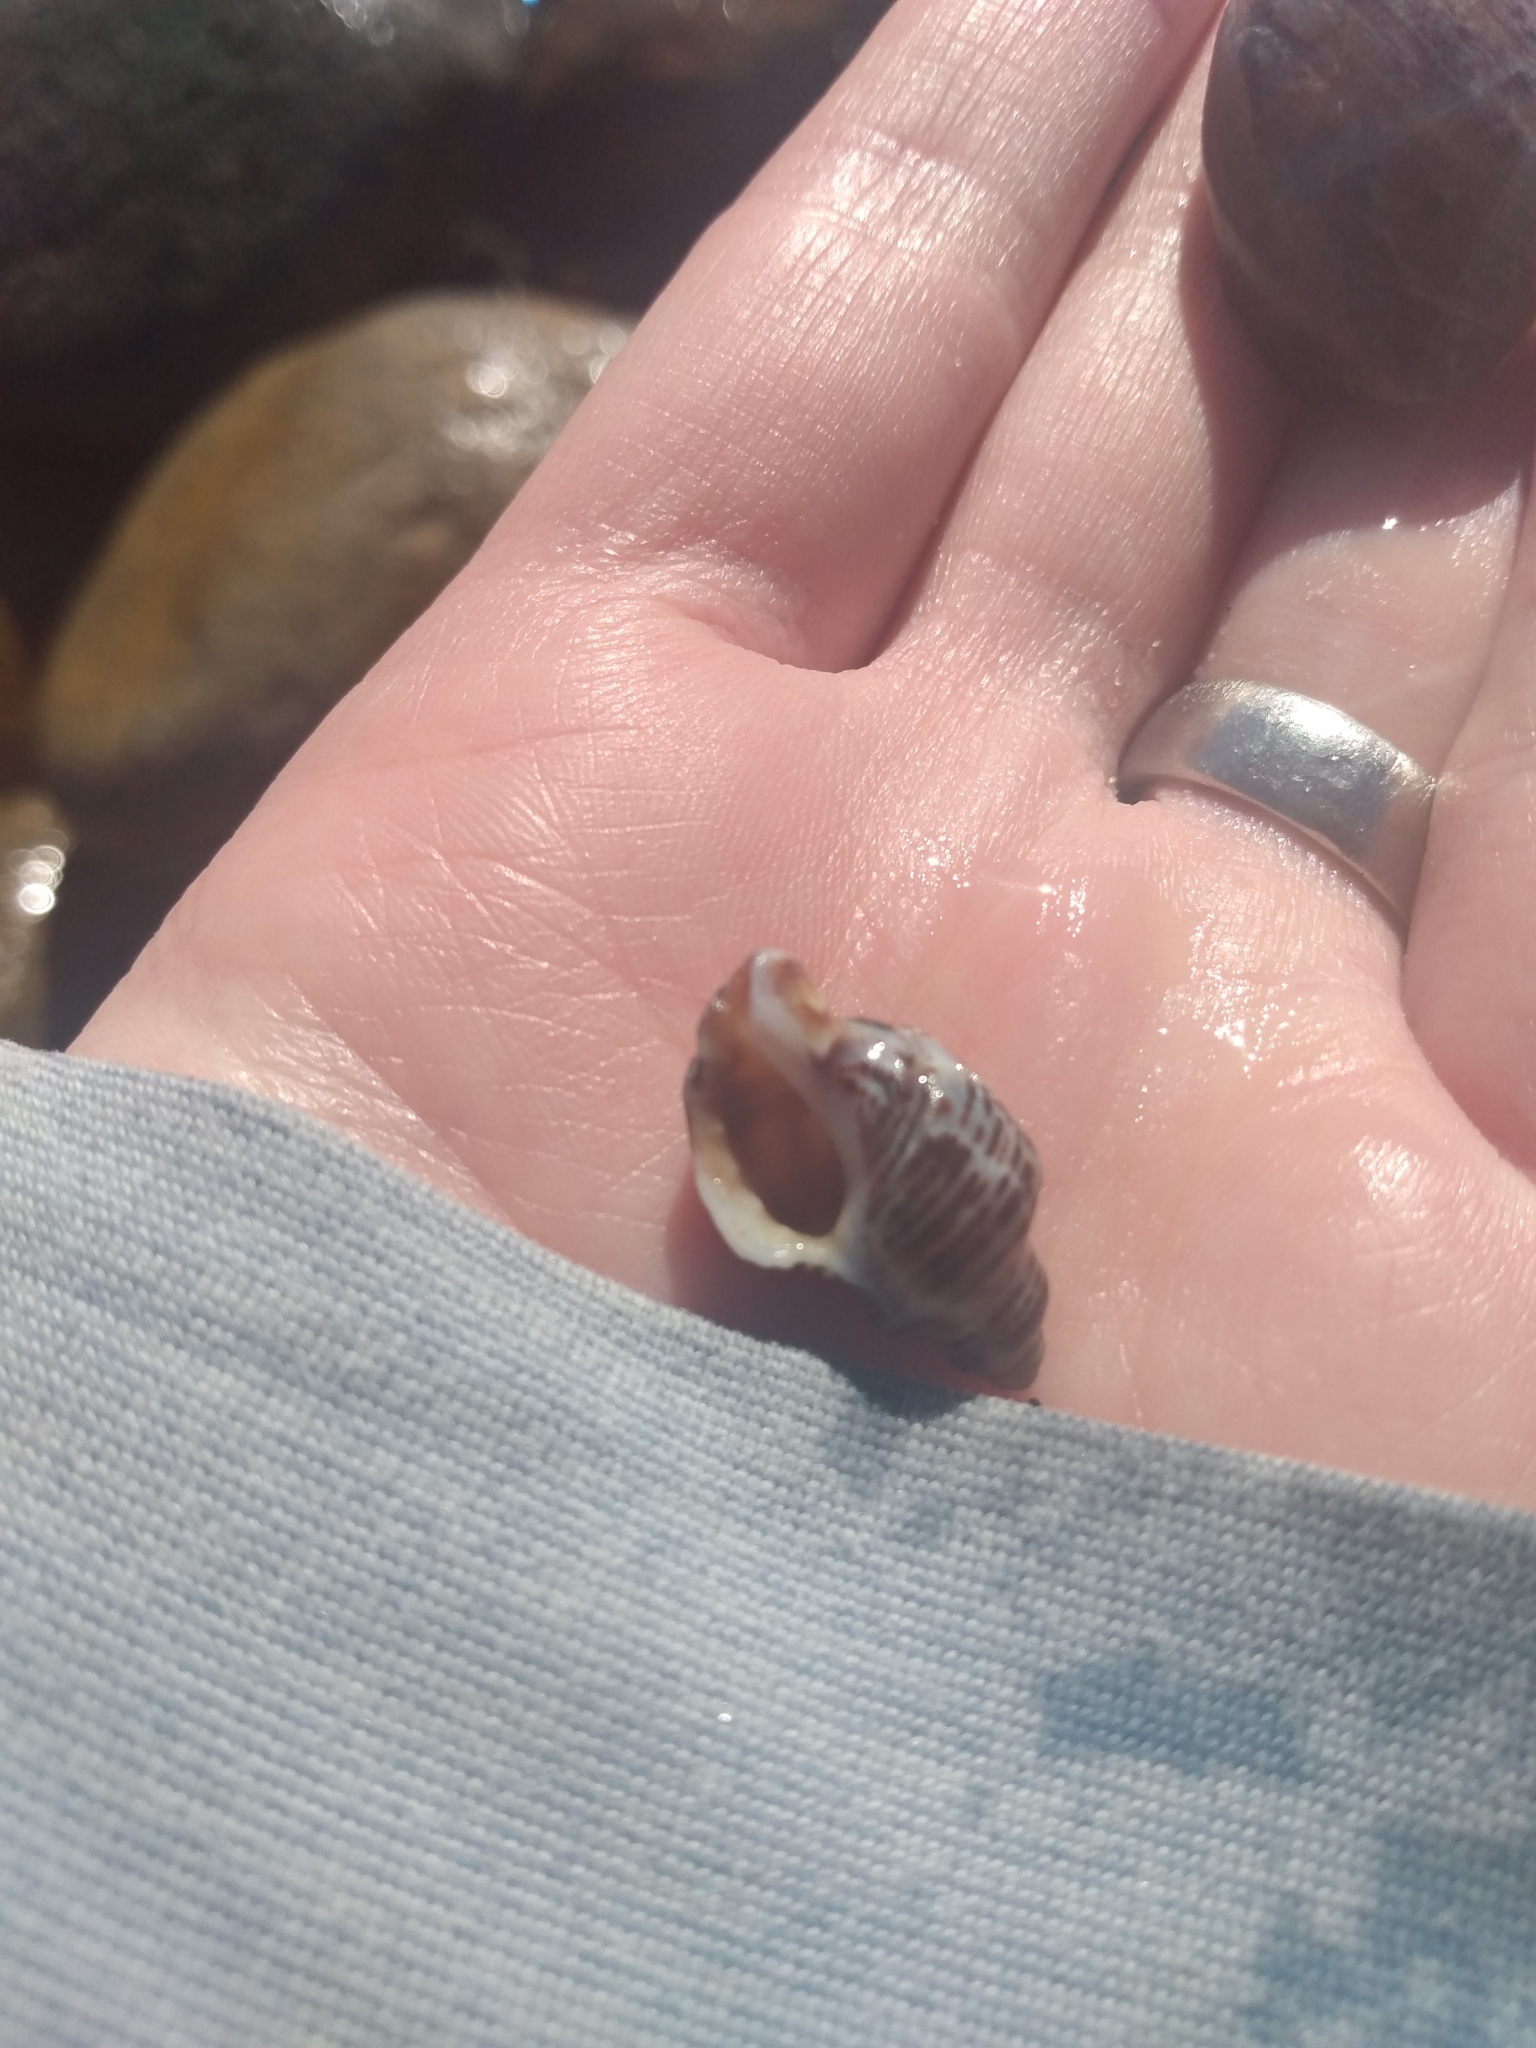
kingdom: Animalia
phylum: Mollusca
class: Gastropoda
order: Neogastropoda
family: Muricidae
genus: Acanthinucella
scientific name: Acanthinucella spirata
